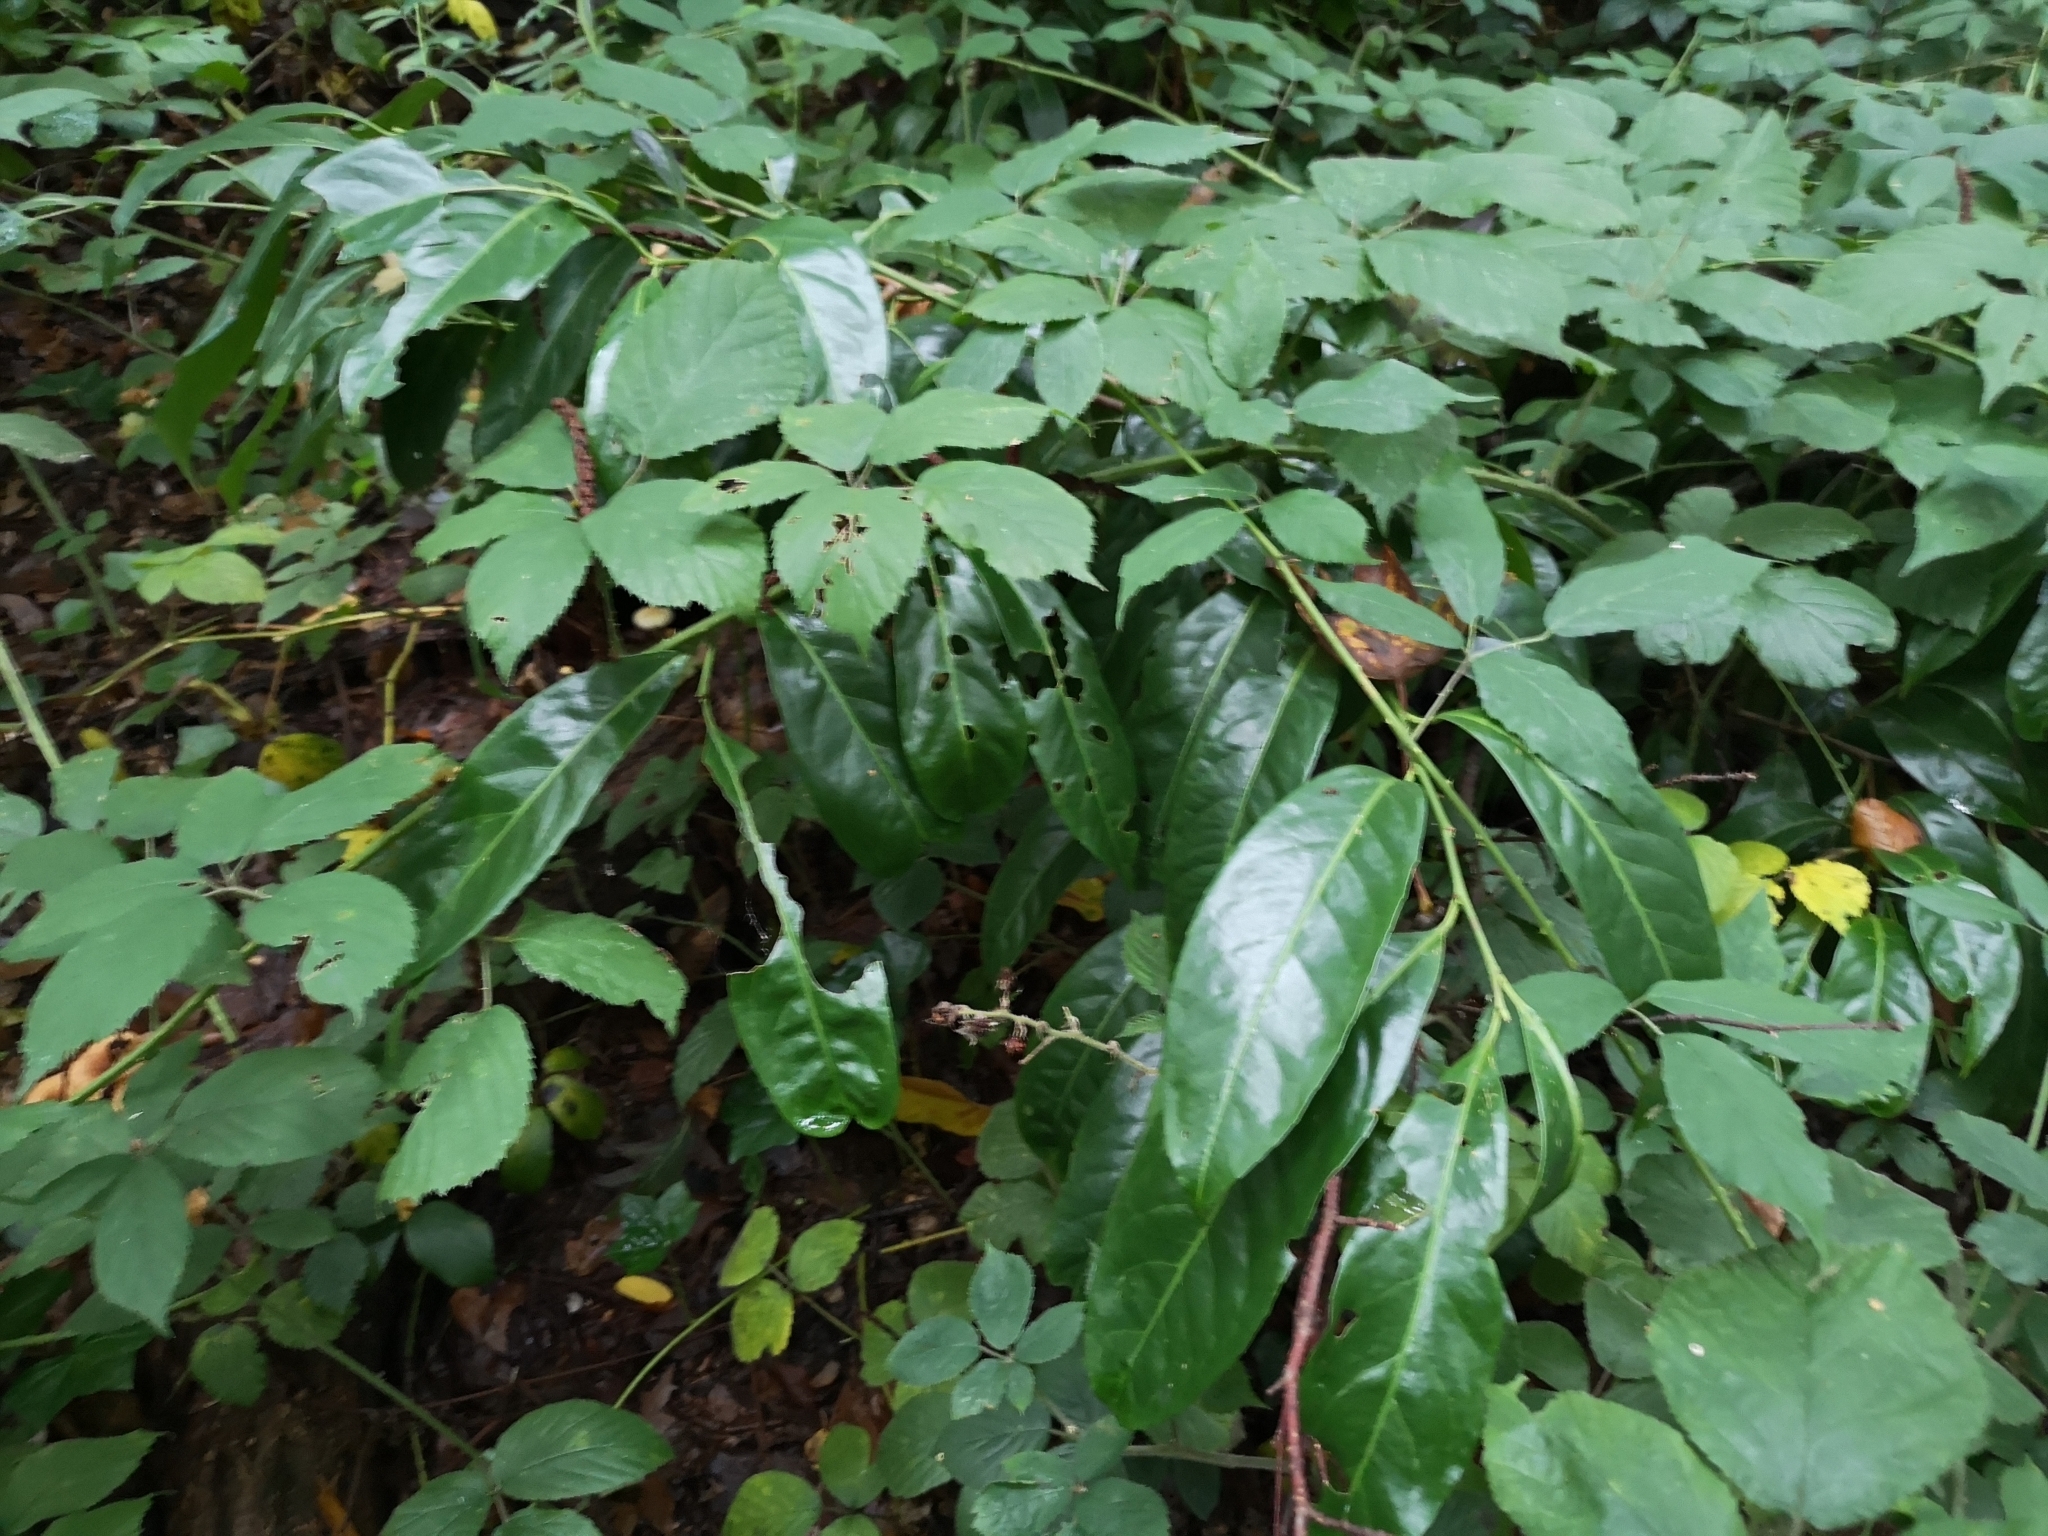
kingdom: Plantae
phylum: Tracheophyta
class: Magnoliopsida
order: Rosales
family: Rosaceae
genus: Prunus
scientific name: Prunus laurocerasus
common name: Cherry laurel
